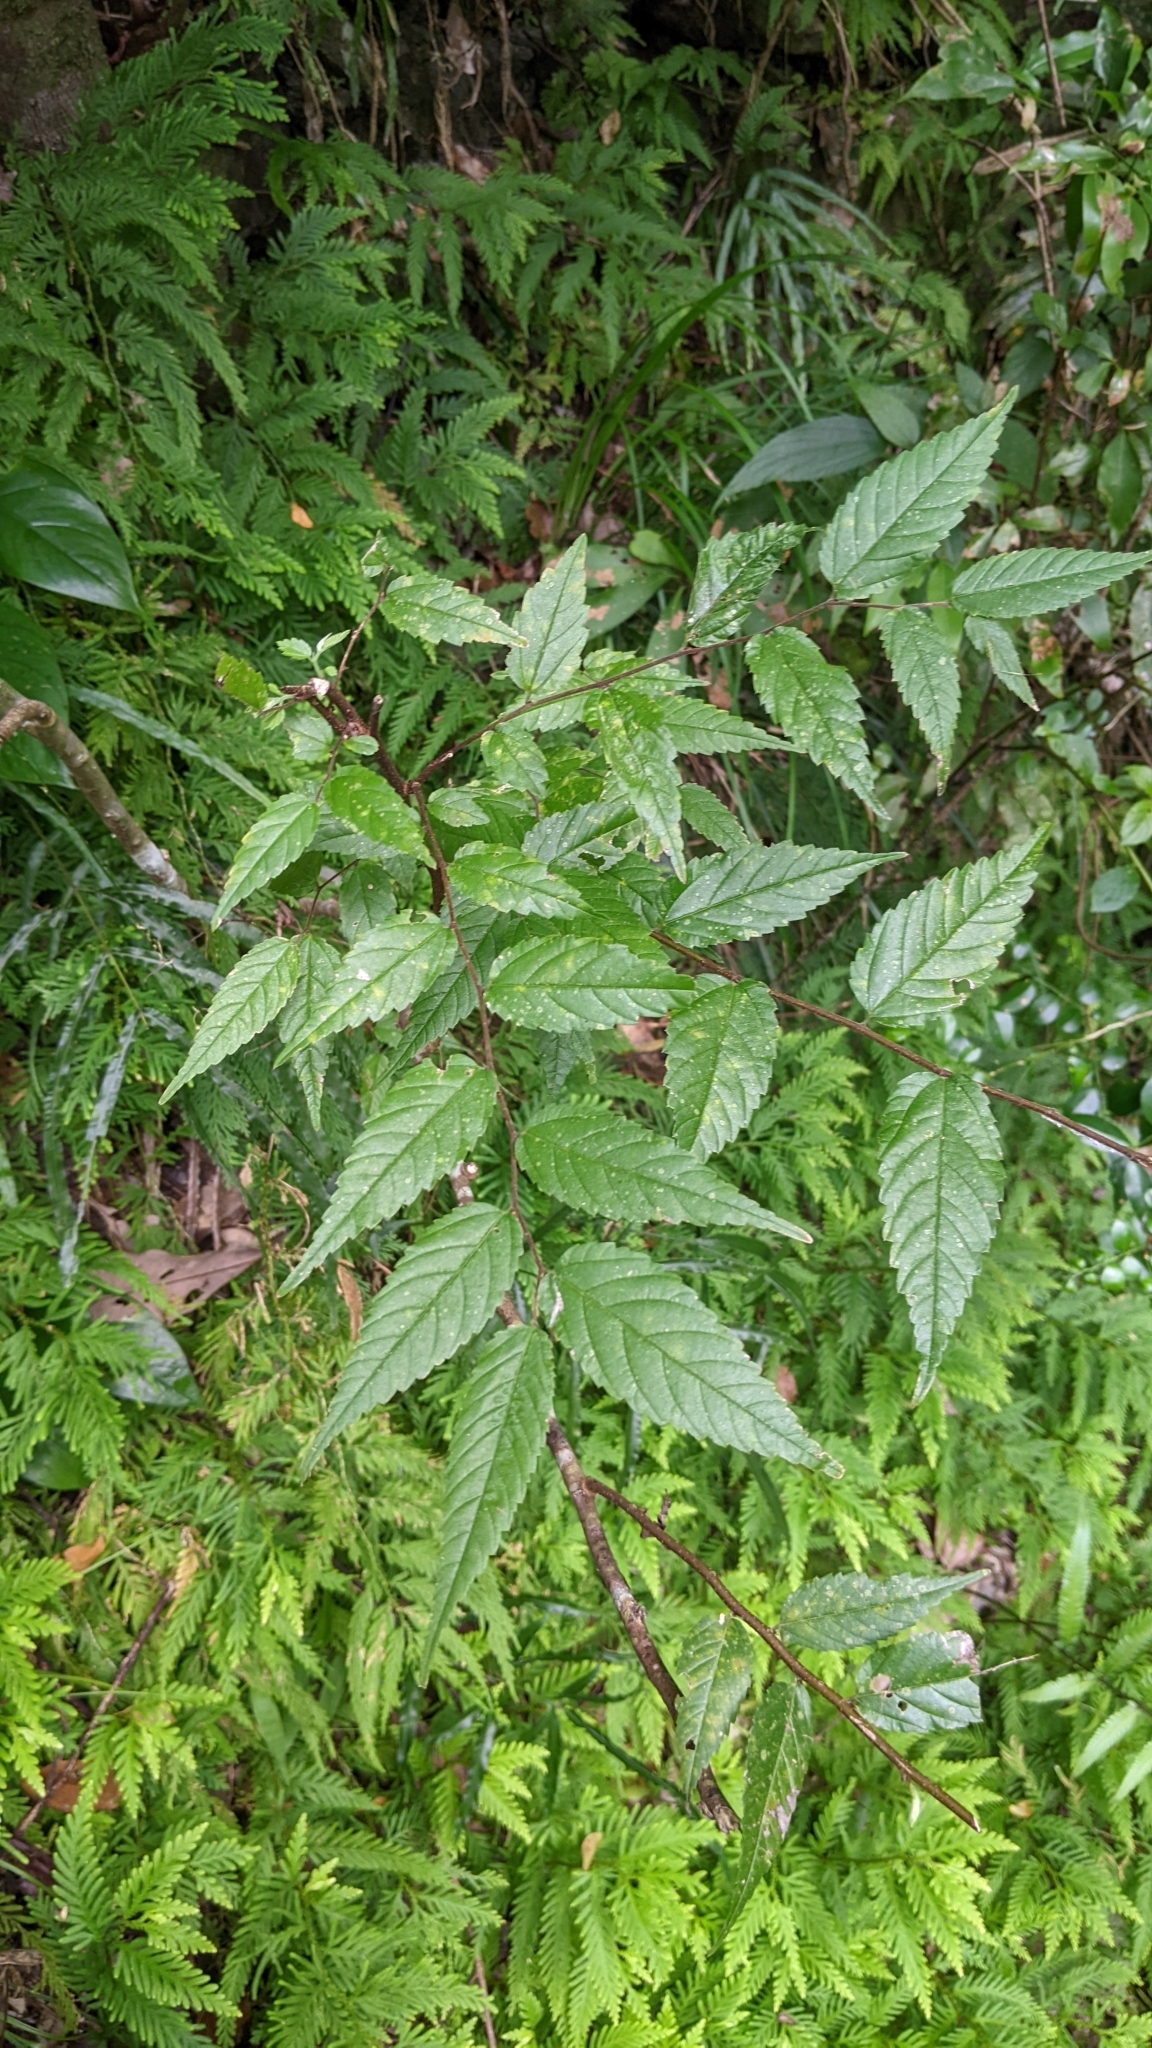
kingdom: Plantae
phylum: Tracheophyta
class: Magnoliopsida
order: Rosales
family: Cannabaceae
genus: Aphananthe
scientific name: Aphananthe aspera
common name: Mukutree
